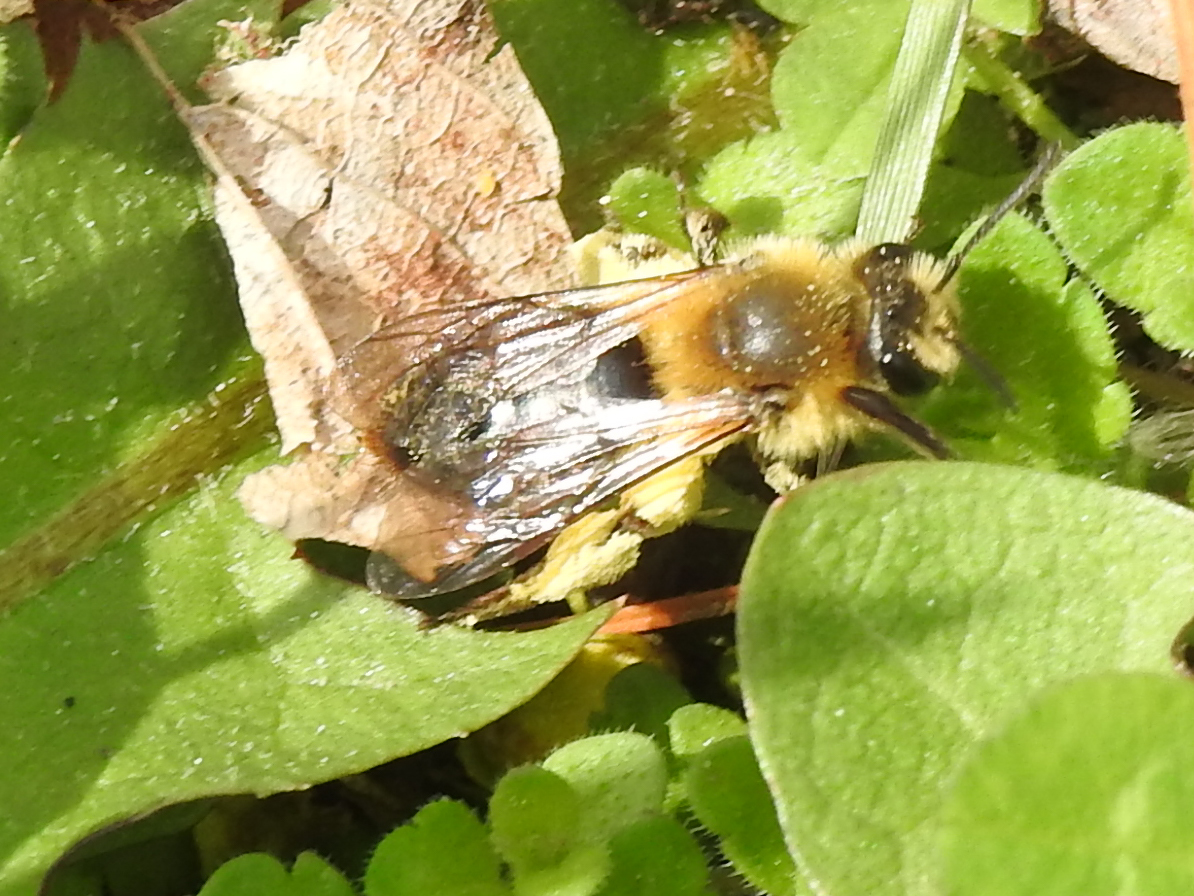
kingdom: Animalia
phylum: Arthropoda
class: Insecta
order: Hymenoptera
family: Andrenidae
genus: Andrena
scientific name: Andrena dunningi
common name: Dunning's miner
